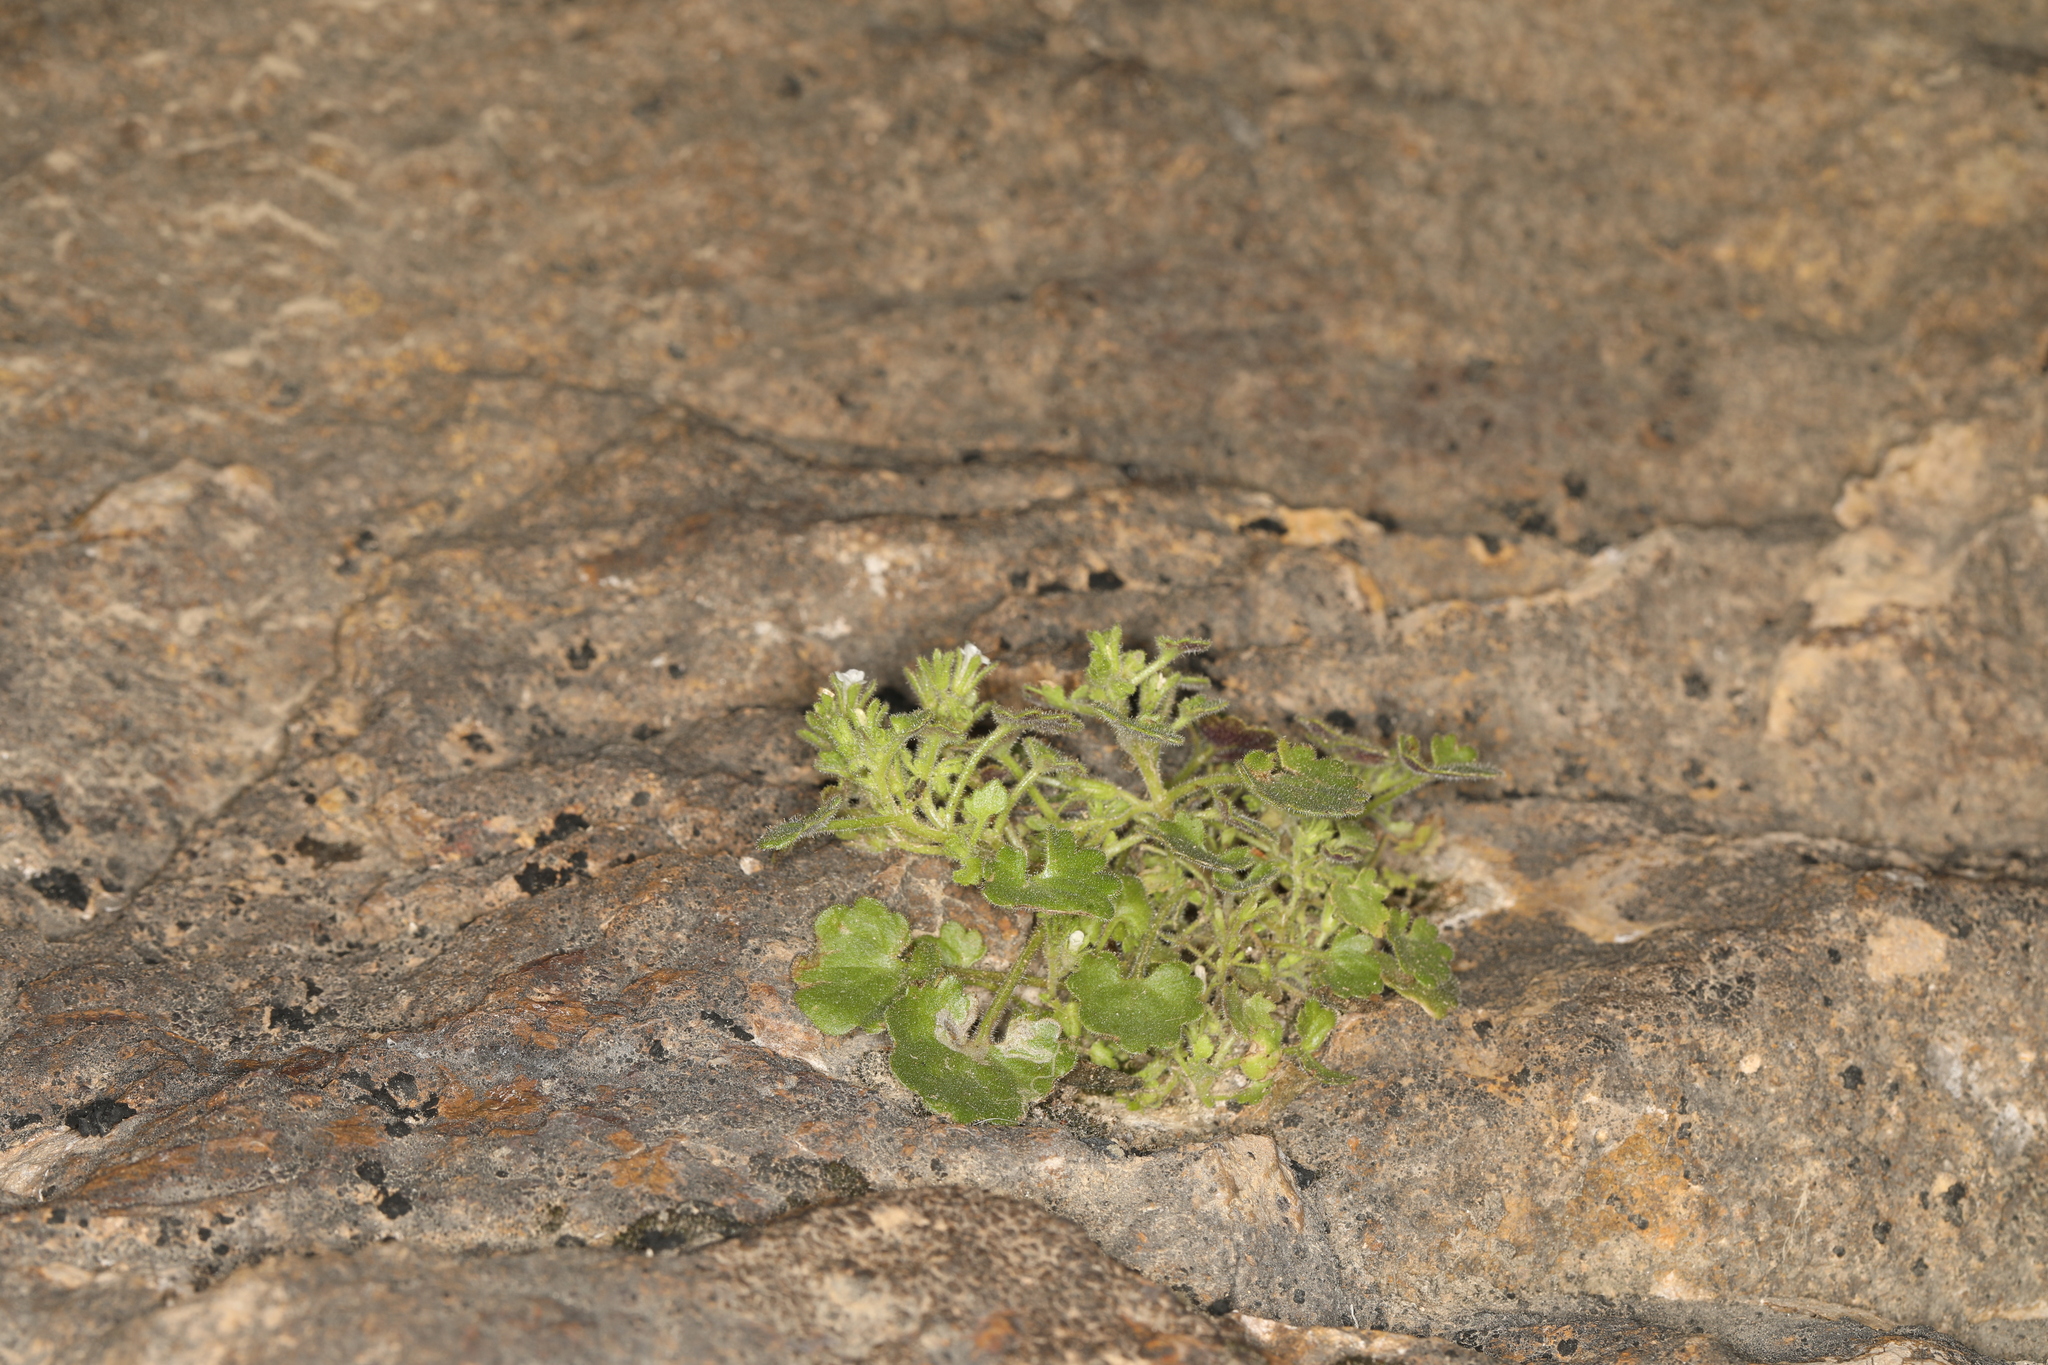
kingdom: Plantae
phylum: Tracheophyta
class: Magnoliopsida
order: Boraginales
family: Hydrophyllaceae
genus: Phacelia
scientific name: Phacelia rotundifolia
